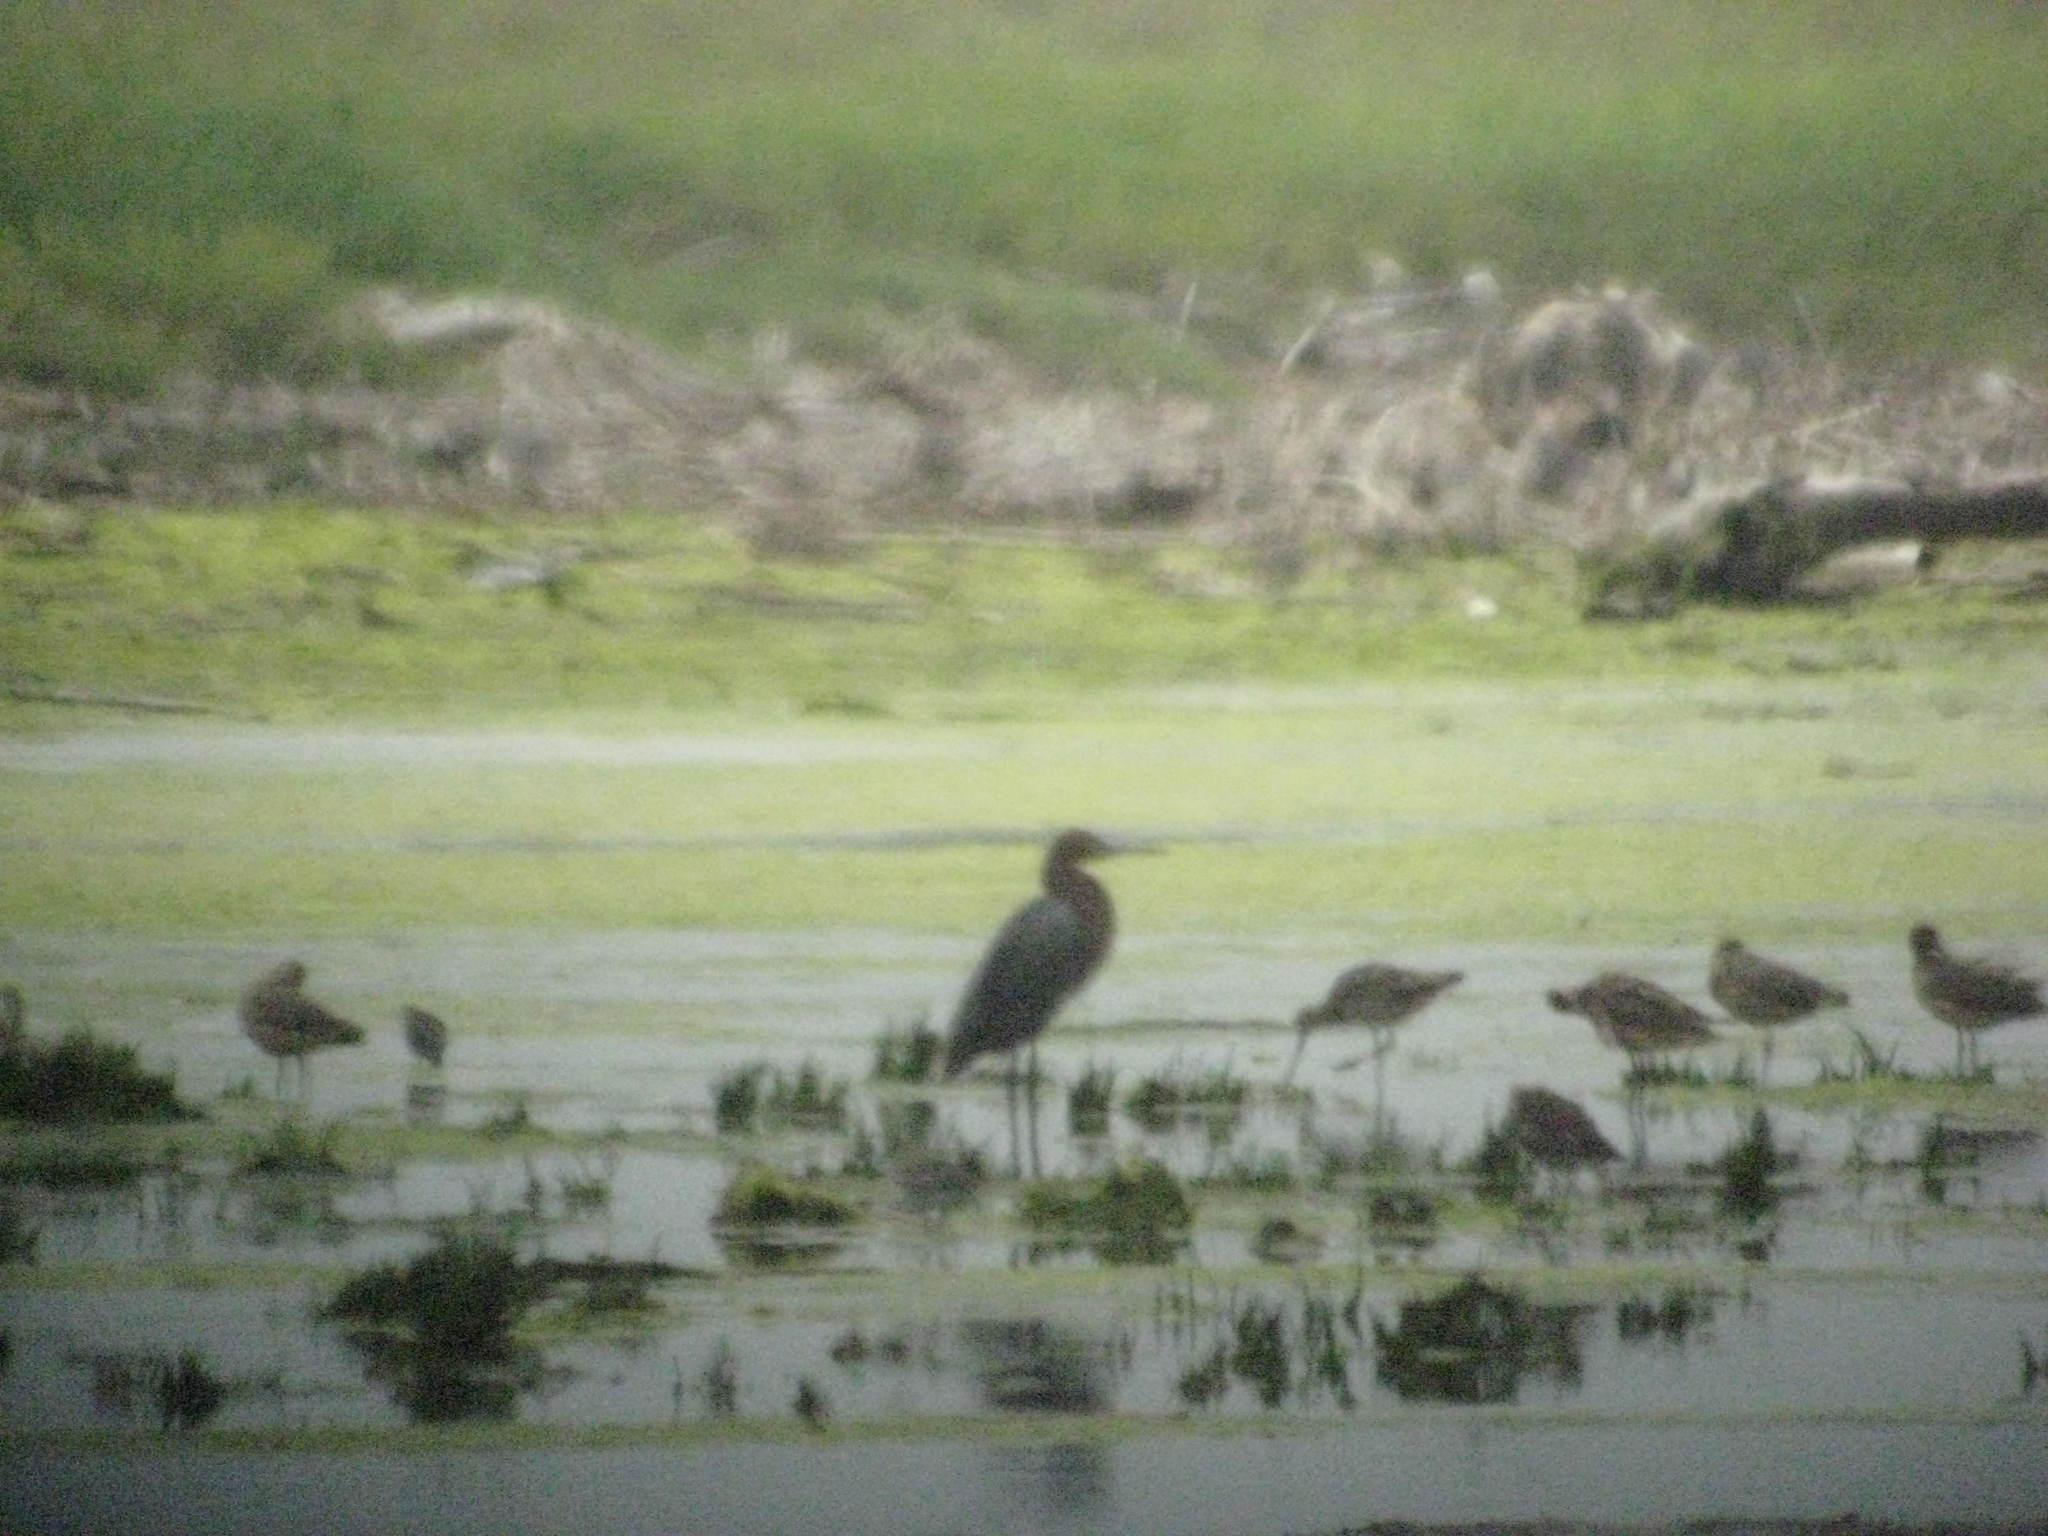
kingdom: Animalia
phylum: Chordata
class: Aves
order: Pelecaniformes
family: Ardeidae
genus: Egretta
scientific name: Egretta rufescens
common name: Reddish egret
